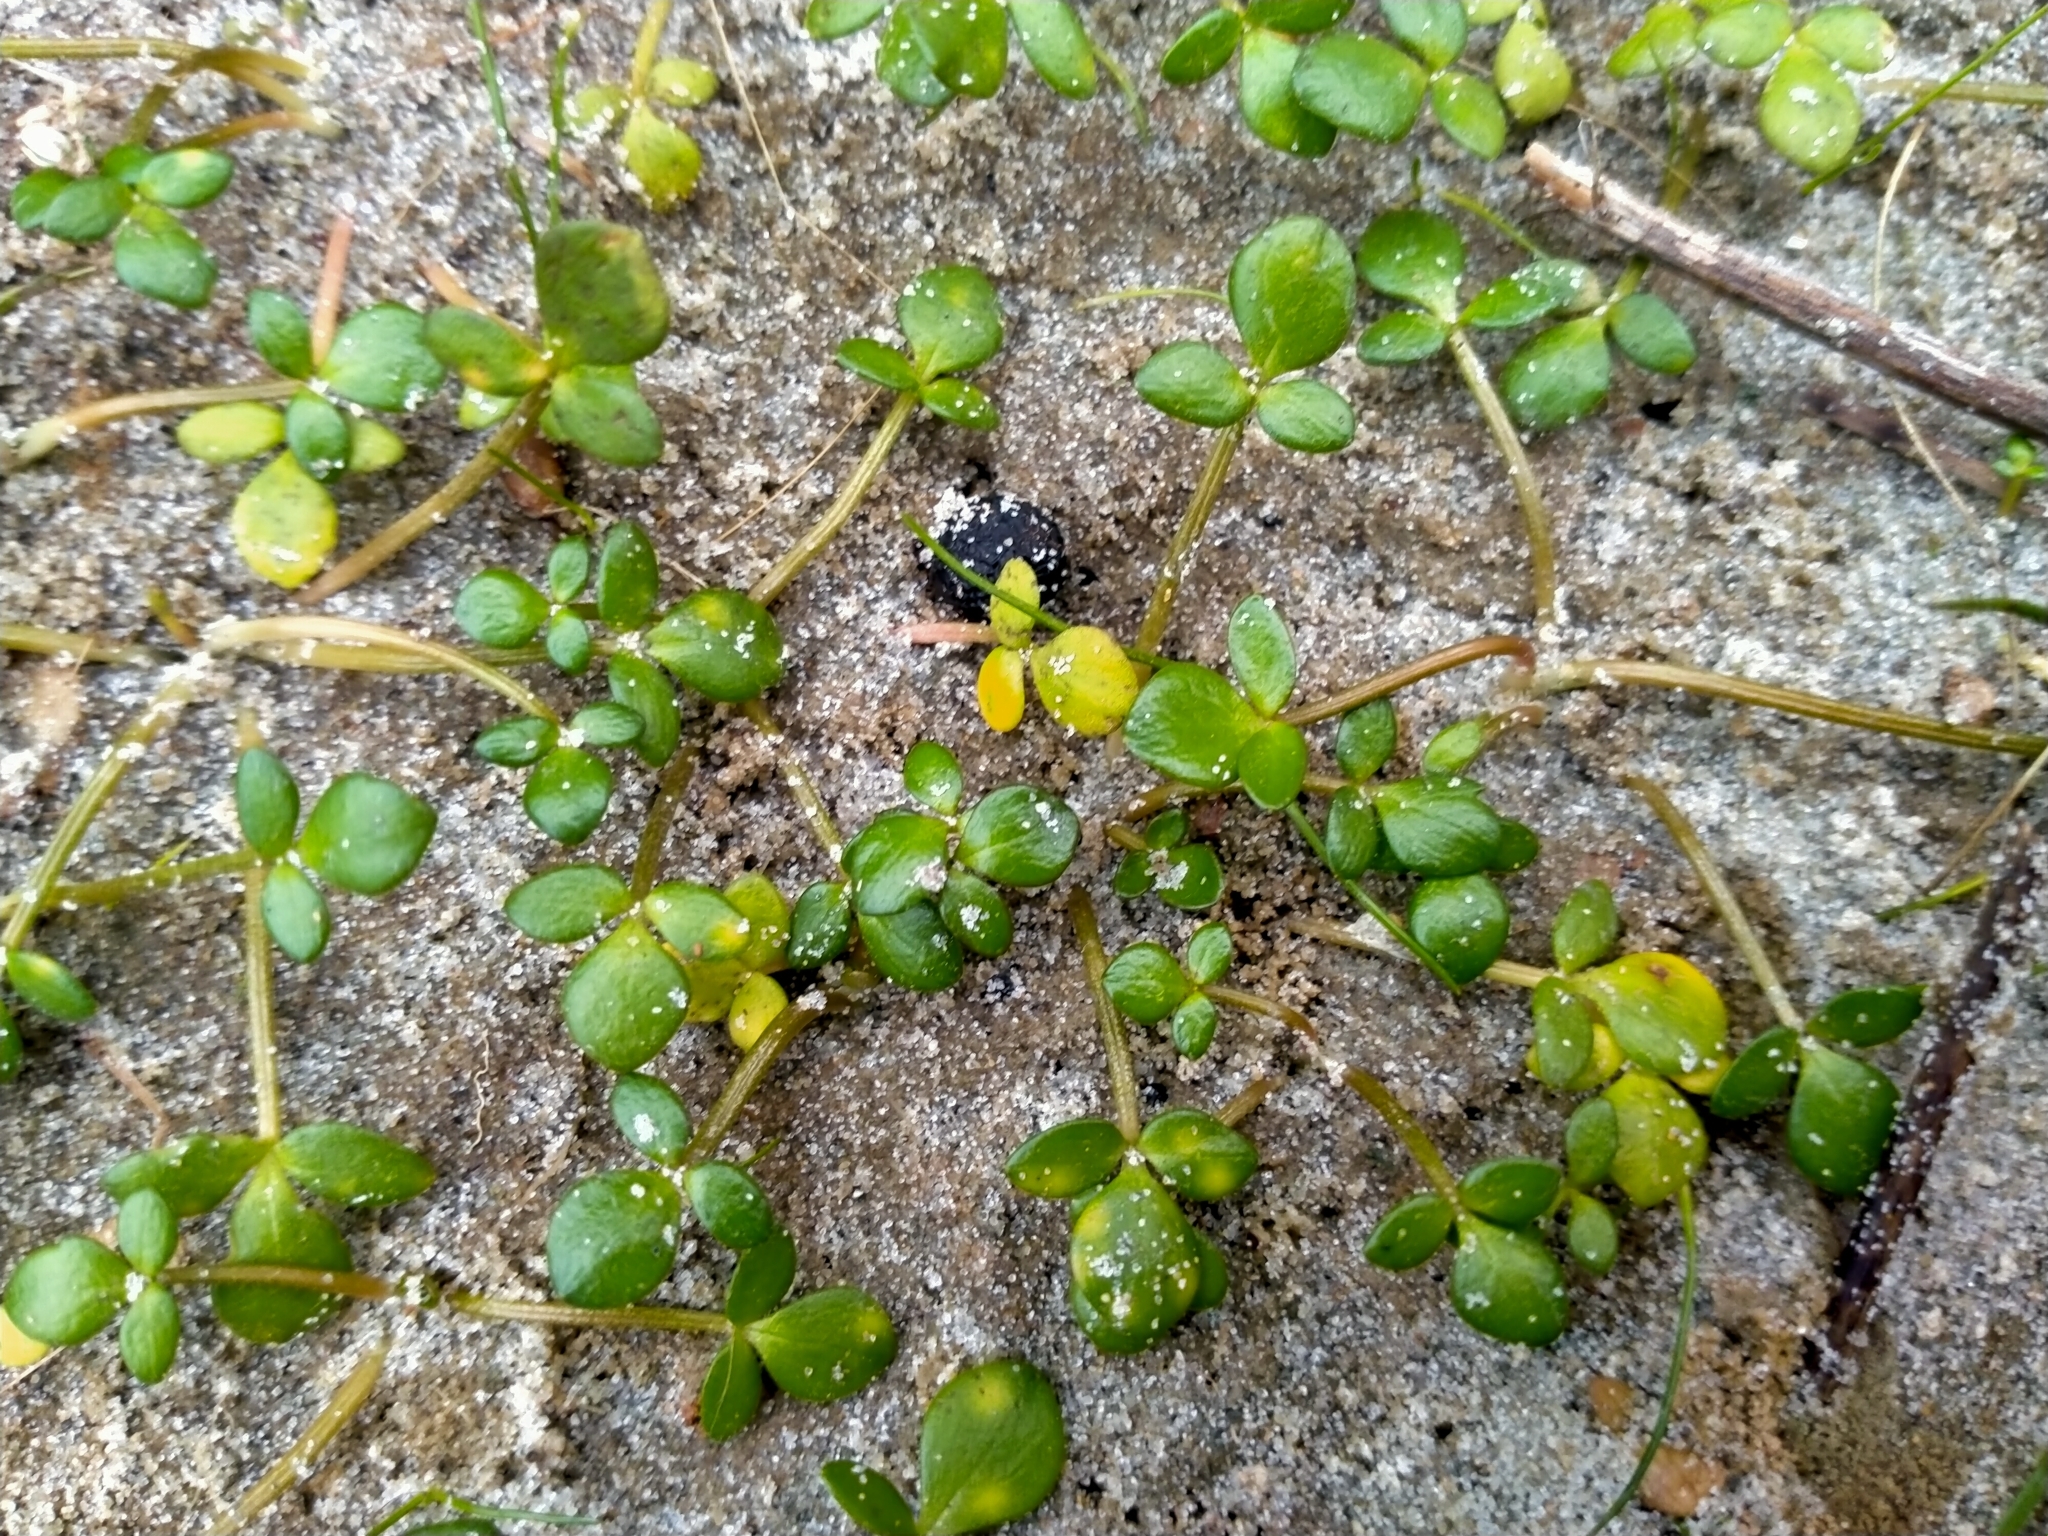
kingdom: Plantae
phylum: Tracheophyta
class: Magnoliopsida
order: Ranunculales
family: Ranunculaceae
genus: Ranunculus
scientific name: Ranunculus acaulis
